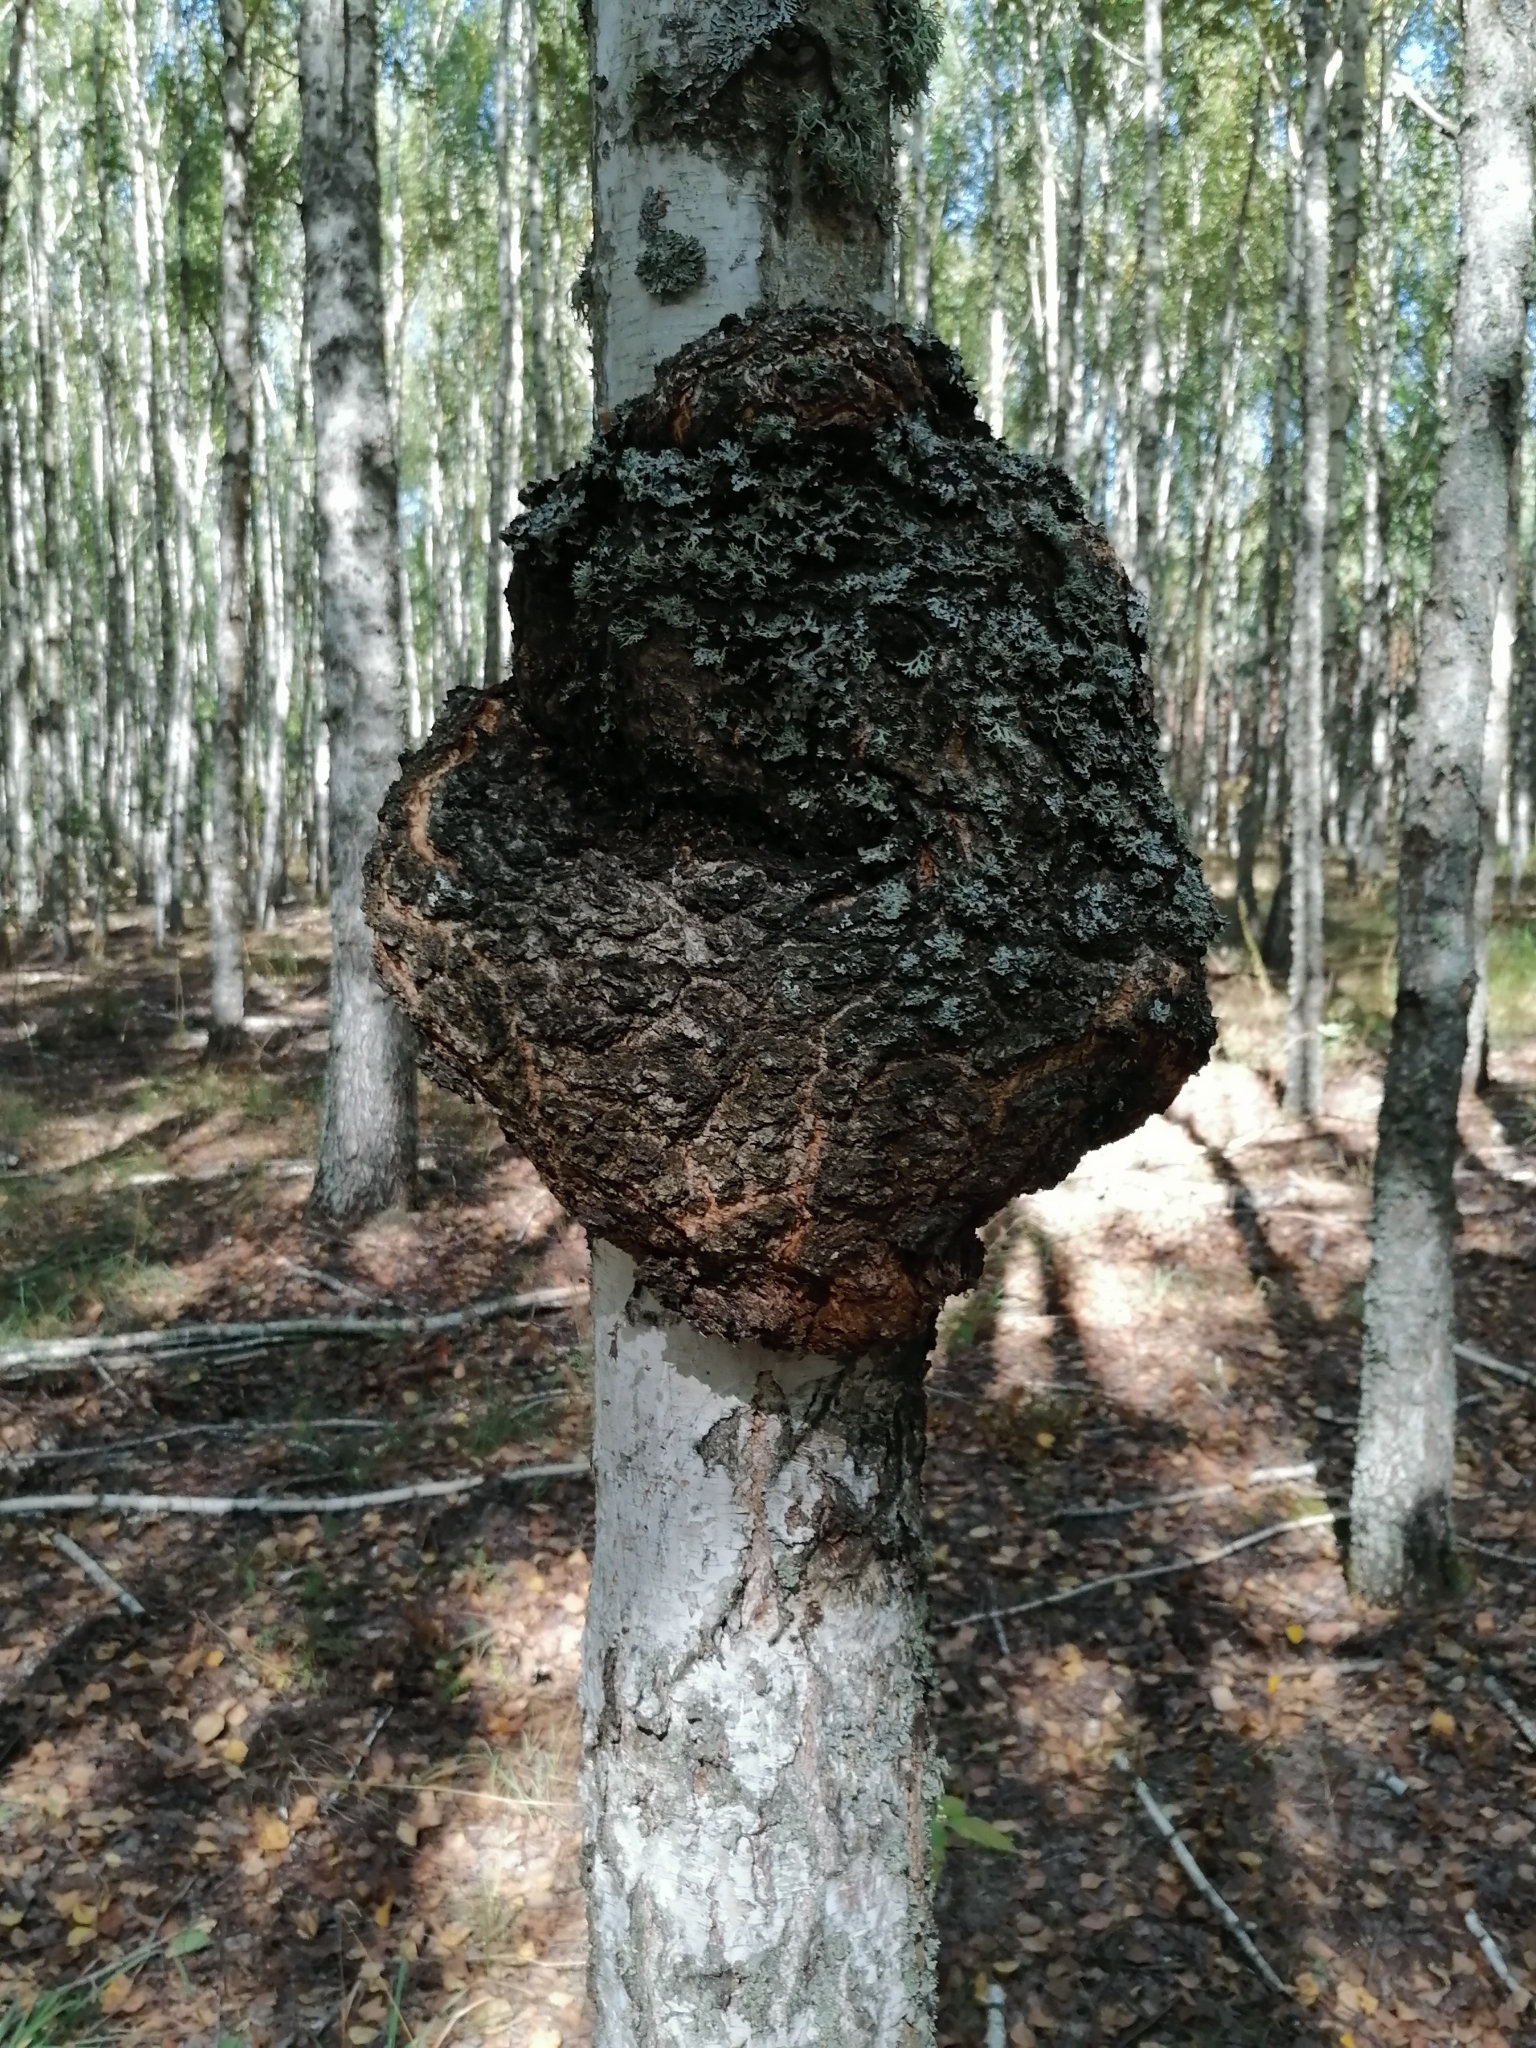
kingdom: Bacteria
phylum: Proteobacteria
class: Alphaproteobacteria
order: Rhizobiales
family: Rhizobiaceae
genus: Rhizobium
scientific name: Rhizobium Agrobacterium radiobacter
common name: Bacterial crown gall
